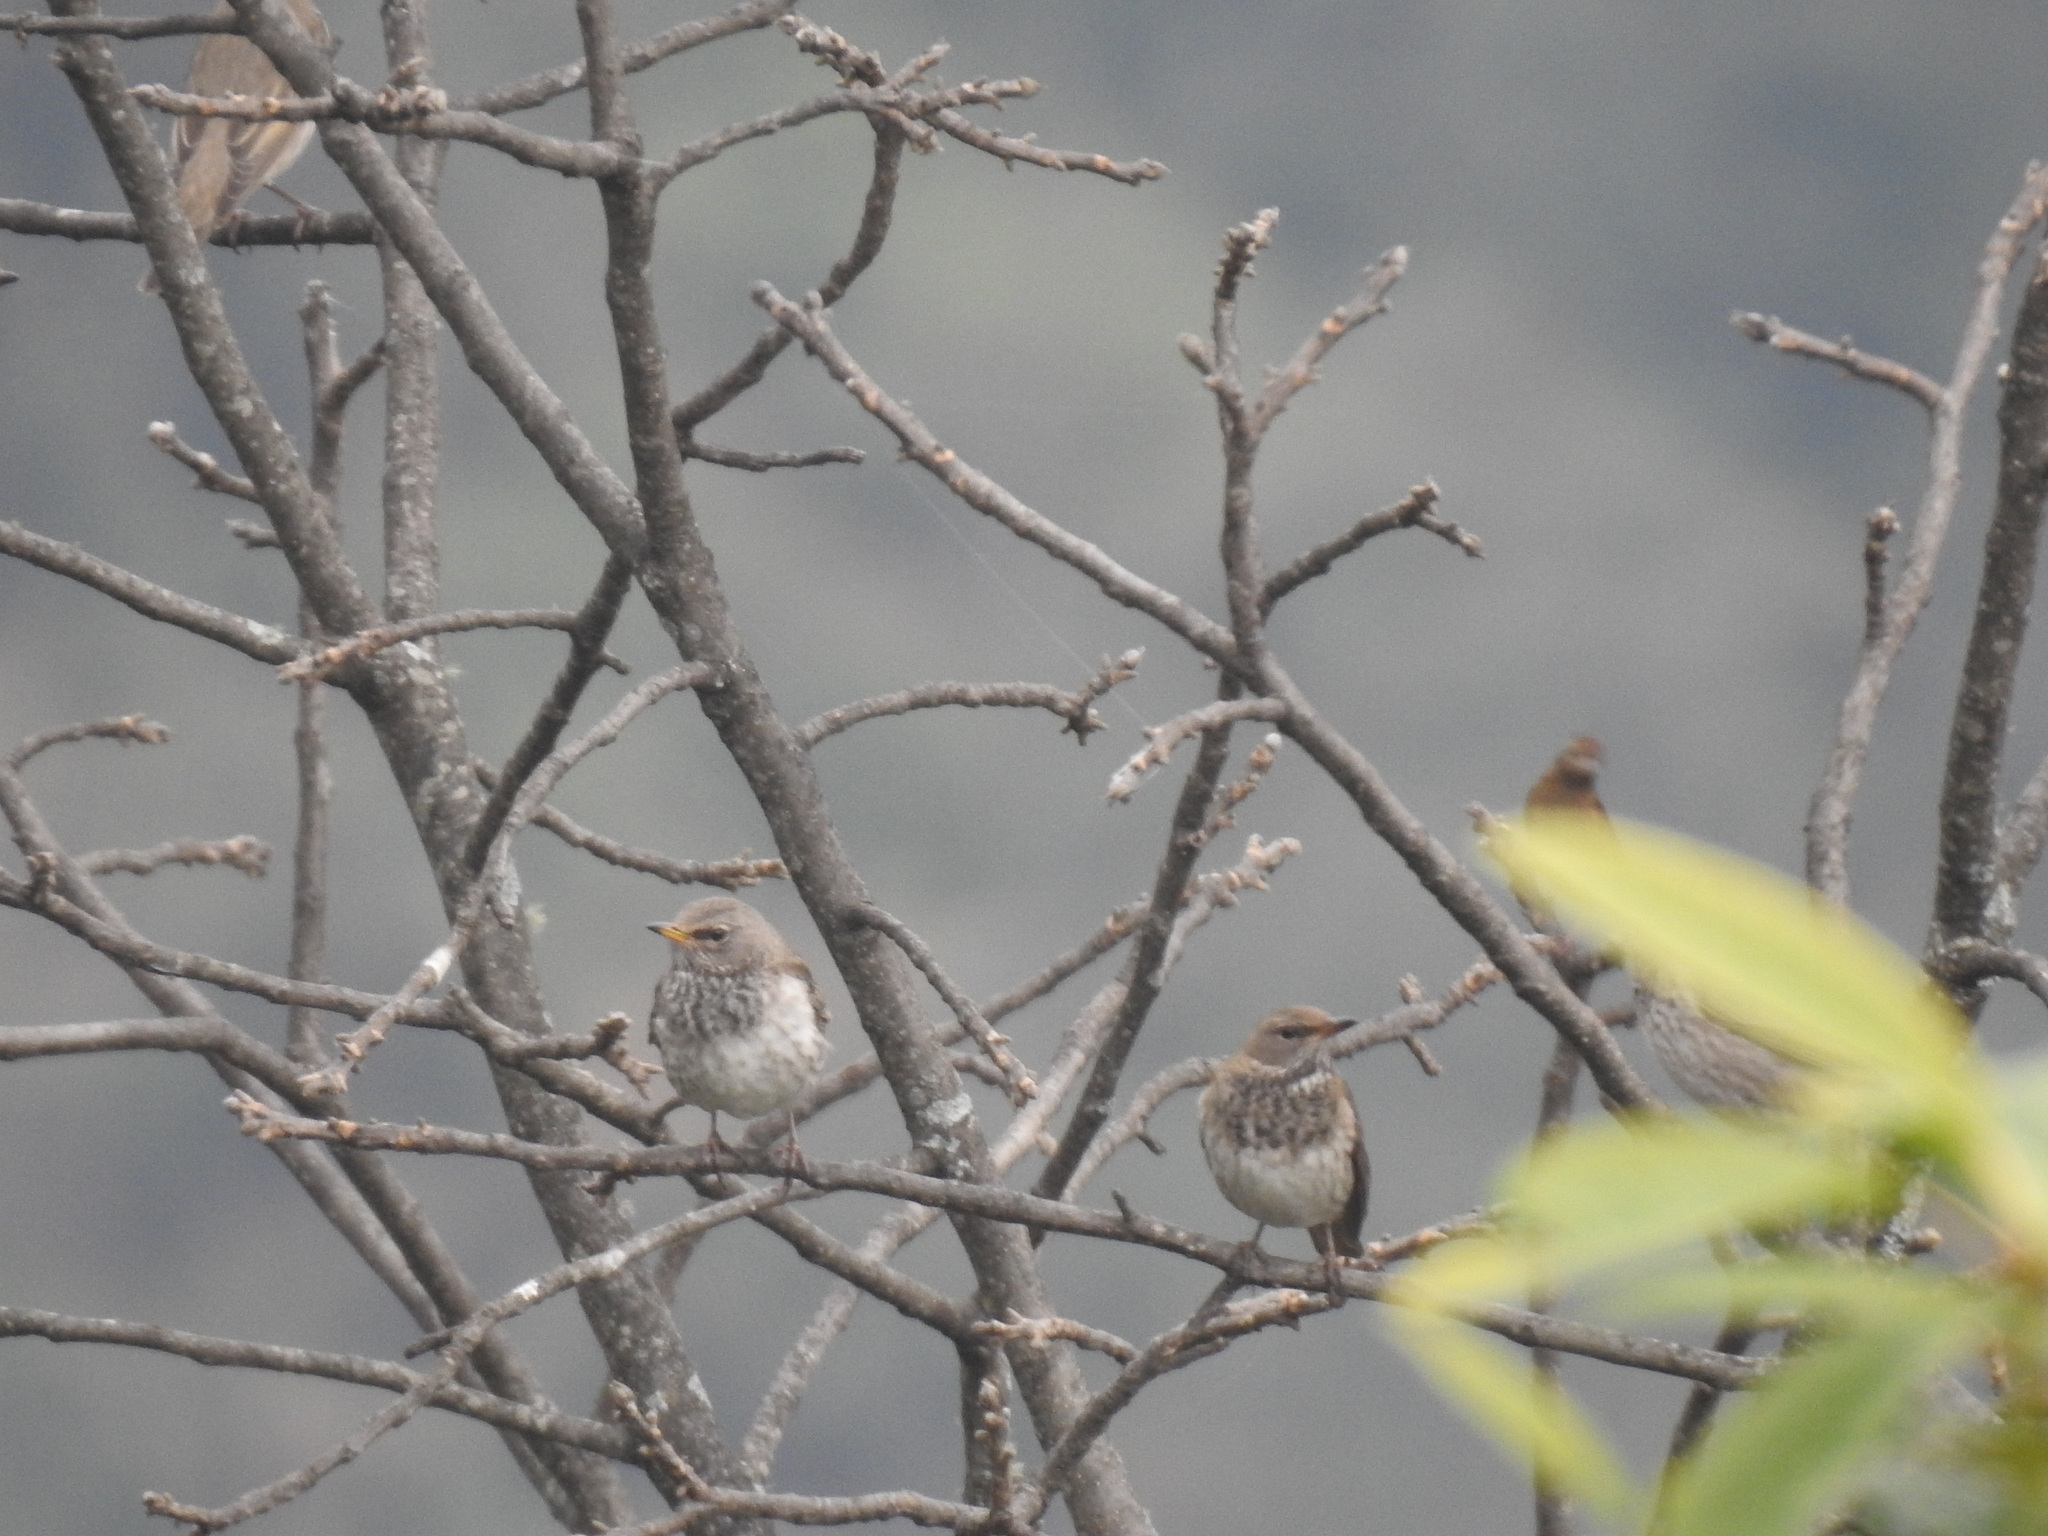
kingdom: Animalia
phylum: Chordata
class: Aves
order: Passeriformes
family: Turdidae
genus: Turdus
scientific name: Turdus atrogularis
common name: Black-throated thrush
